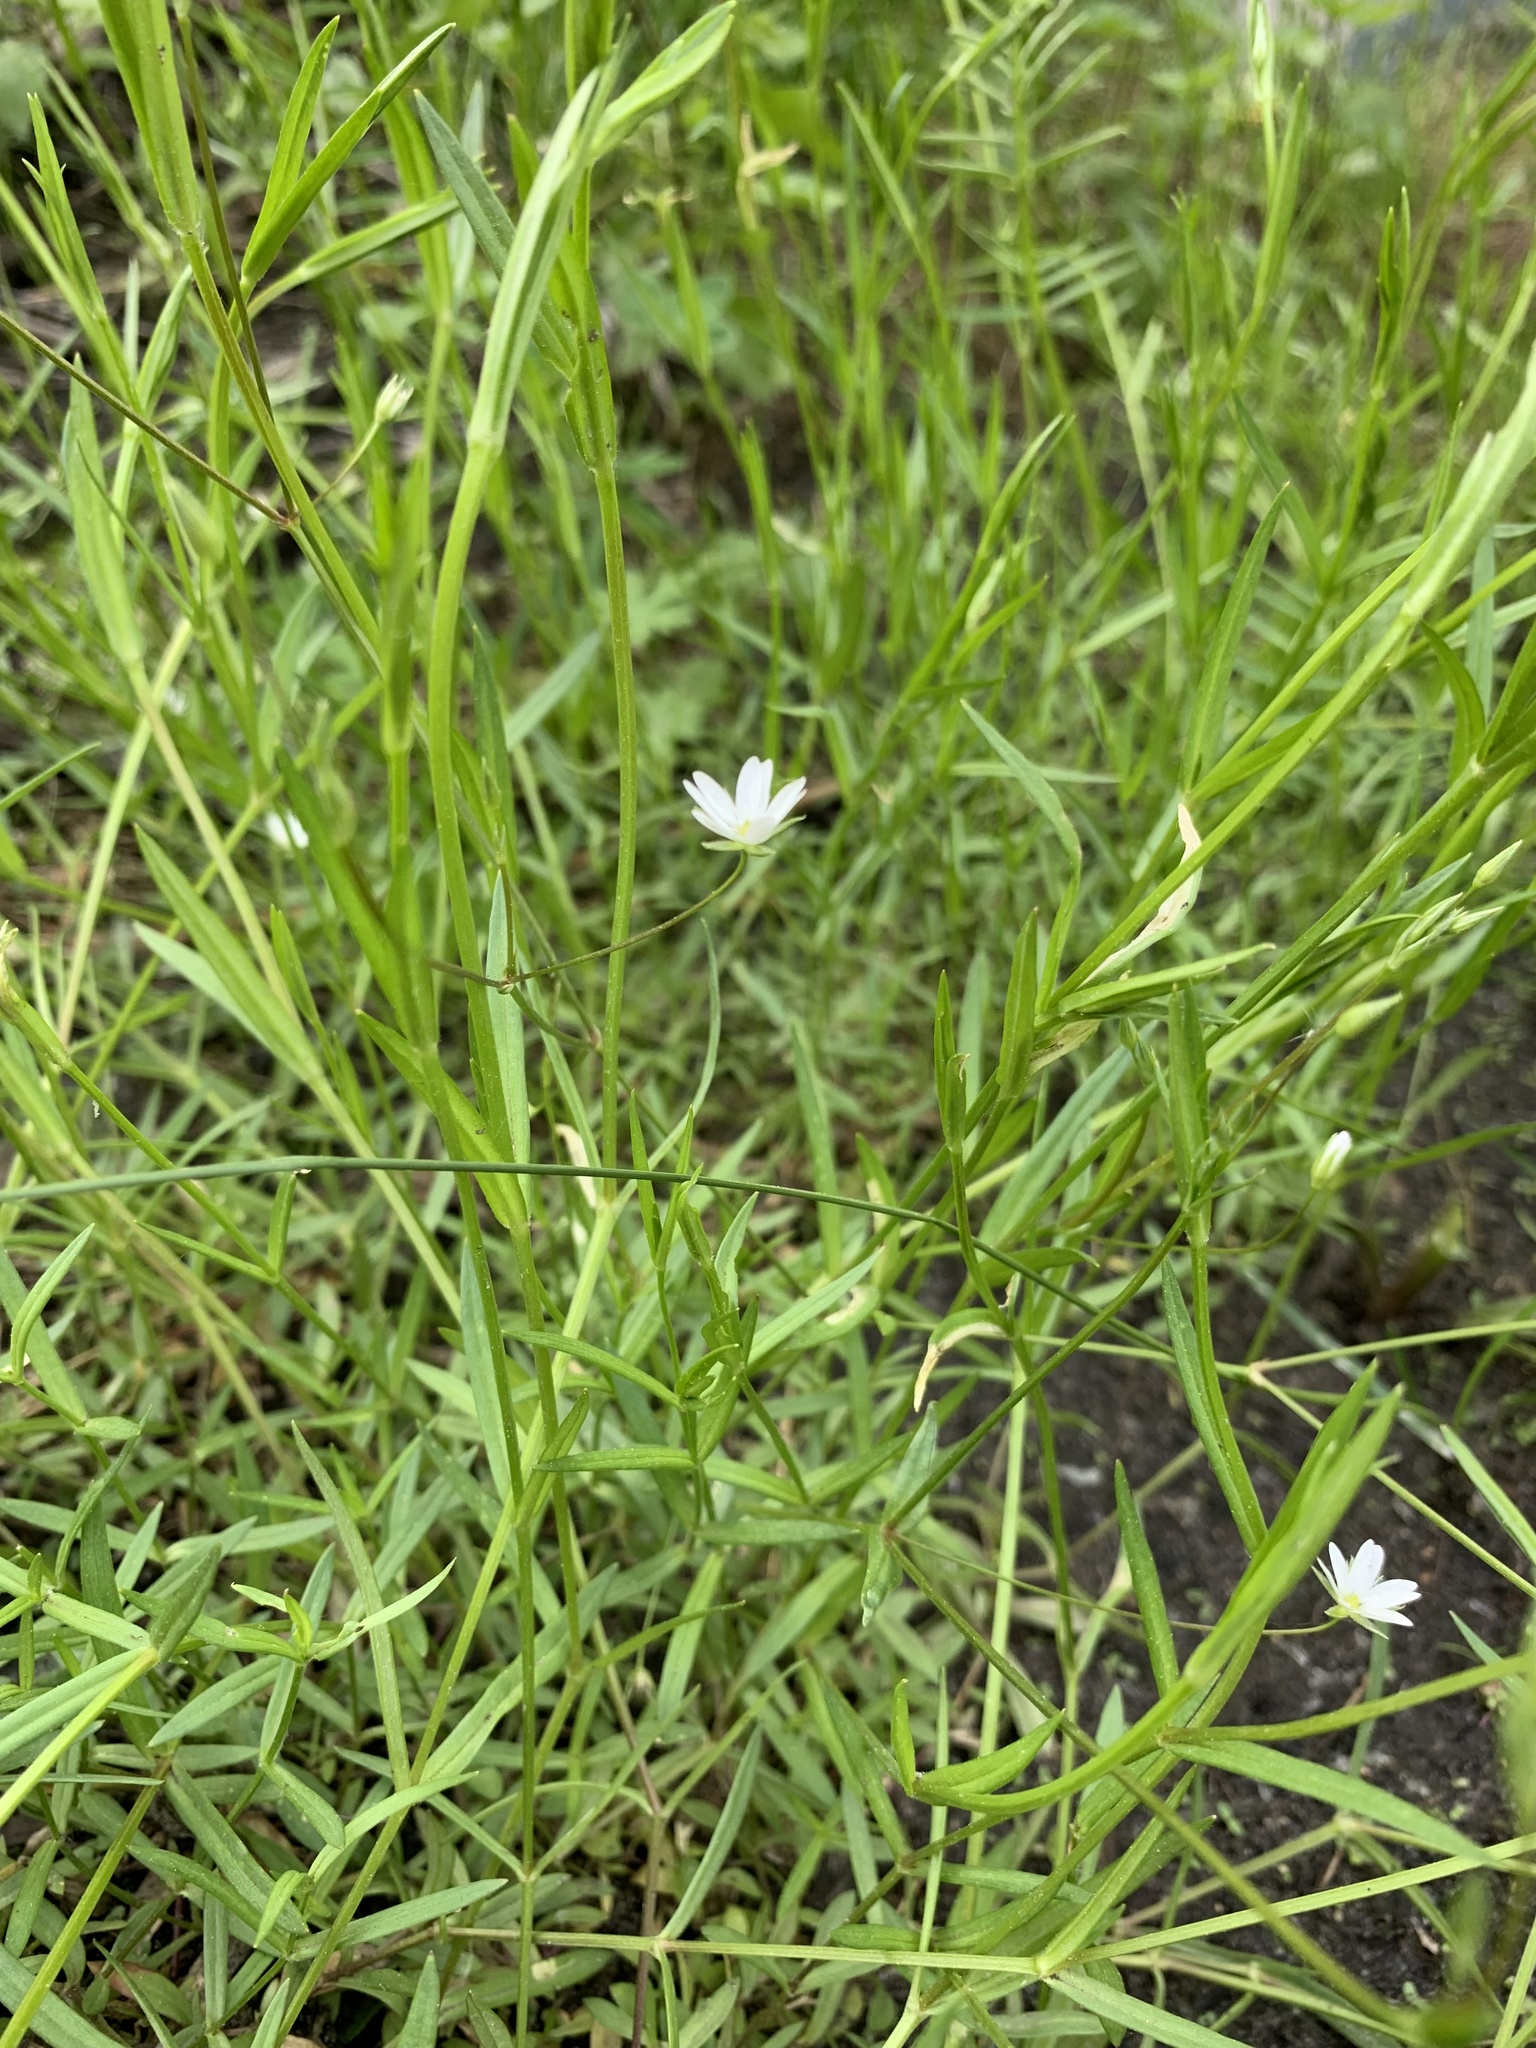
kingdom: Plantae
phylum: Tracheophyta
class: Magnoliopsida
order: Caryophyllales
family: Caryophyllaceae
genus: Stellaria
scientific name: Stellaria graminea
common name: Grass-like starwort
